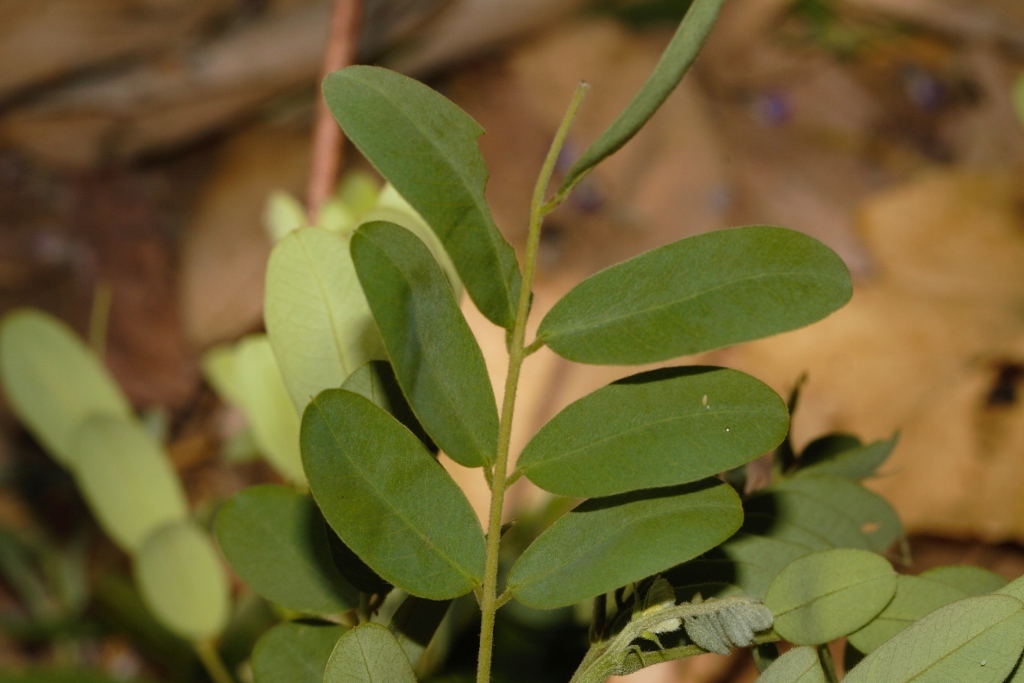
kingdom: Plantae
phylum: Tracheophyta
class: Magnoliopsida
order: Fabales
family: Fabaceae
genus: Senna
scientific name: Senna singueana
